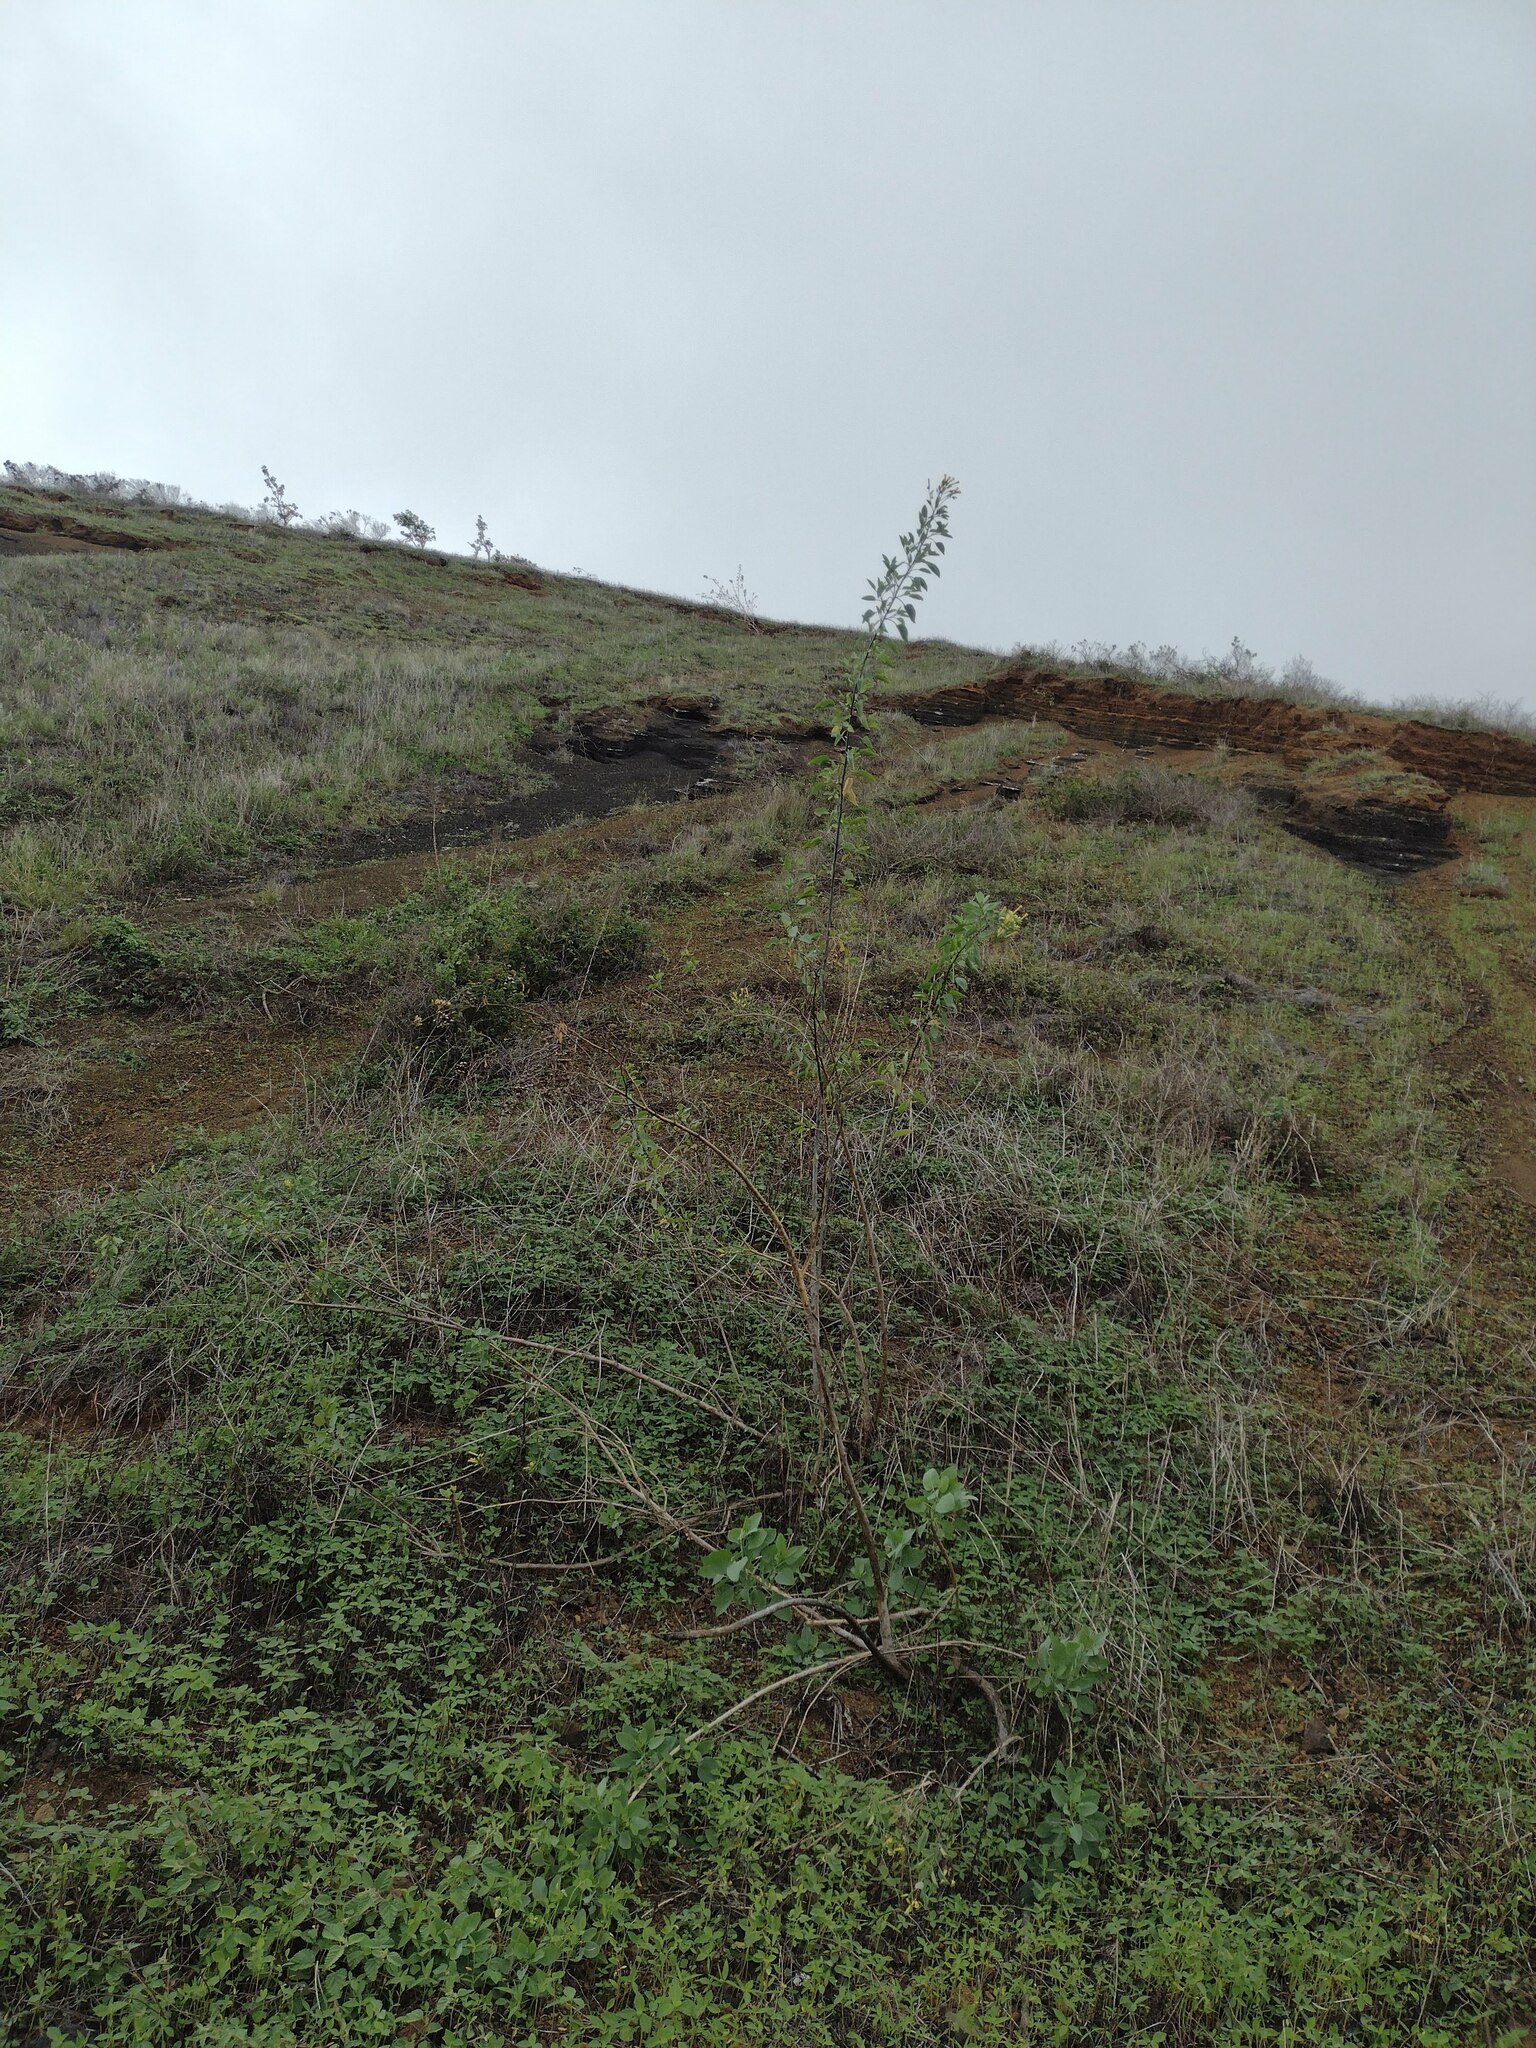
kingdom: Plantae
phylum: Tracheophyta
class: Magnoliopsida
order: Solanales
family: Solanaceae
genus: Nicotiana
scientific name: Nicotiana glauca
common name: Tree tobacco
